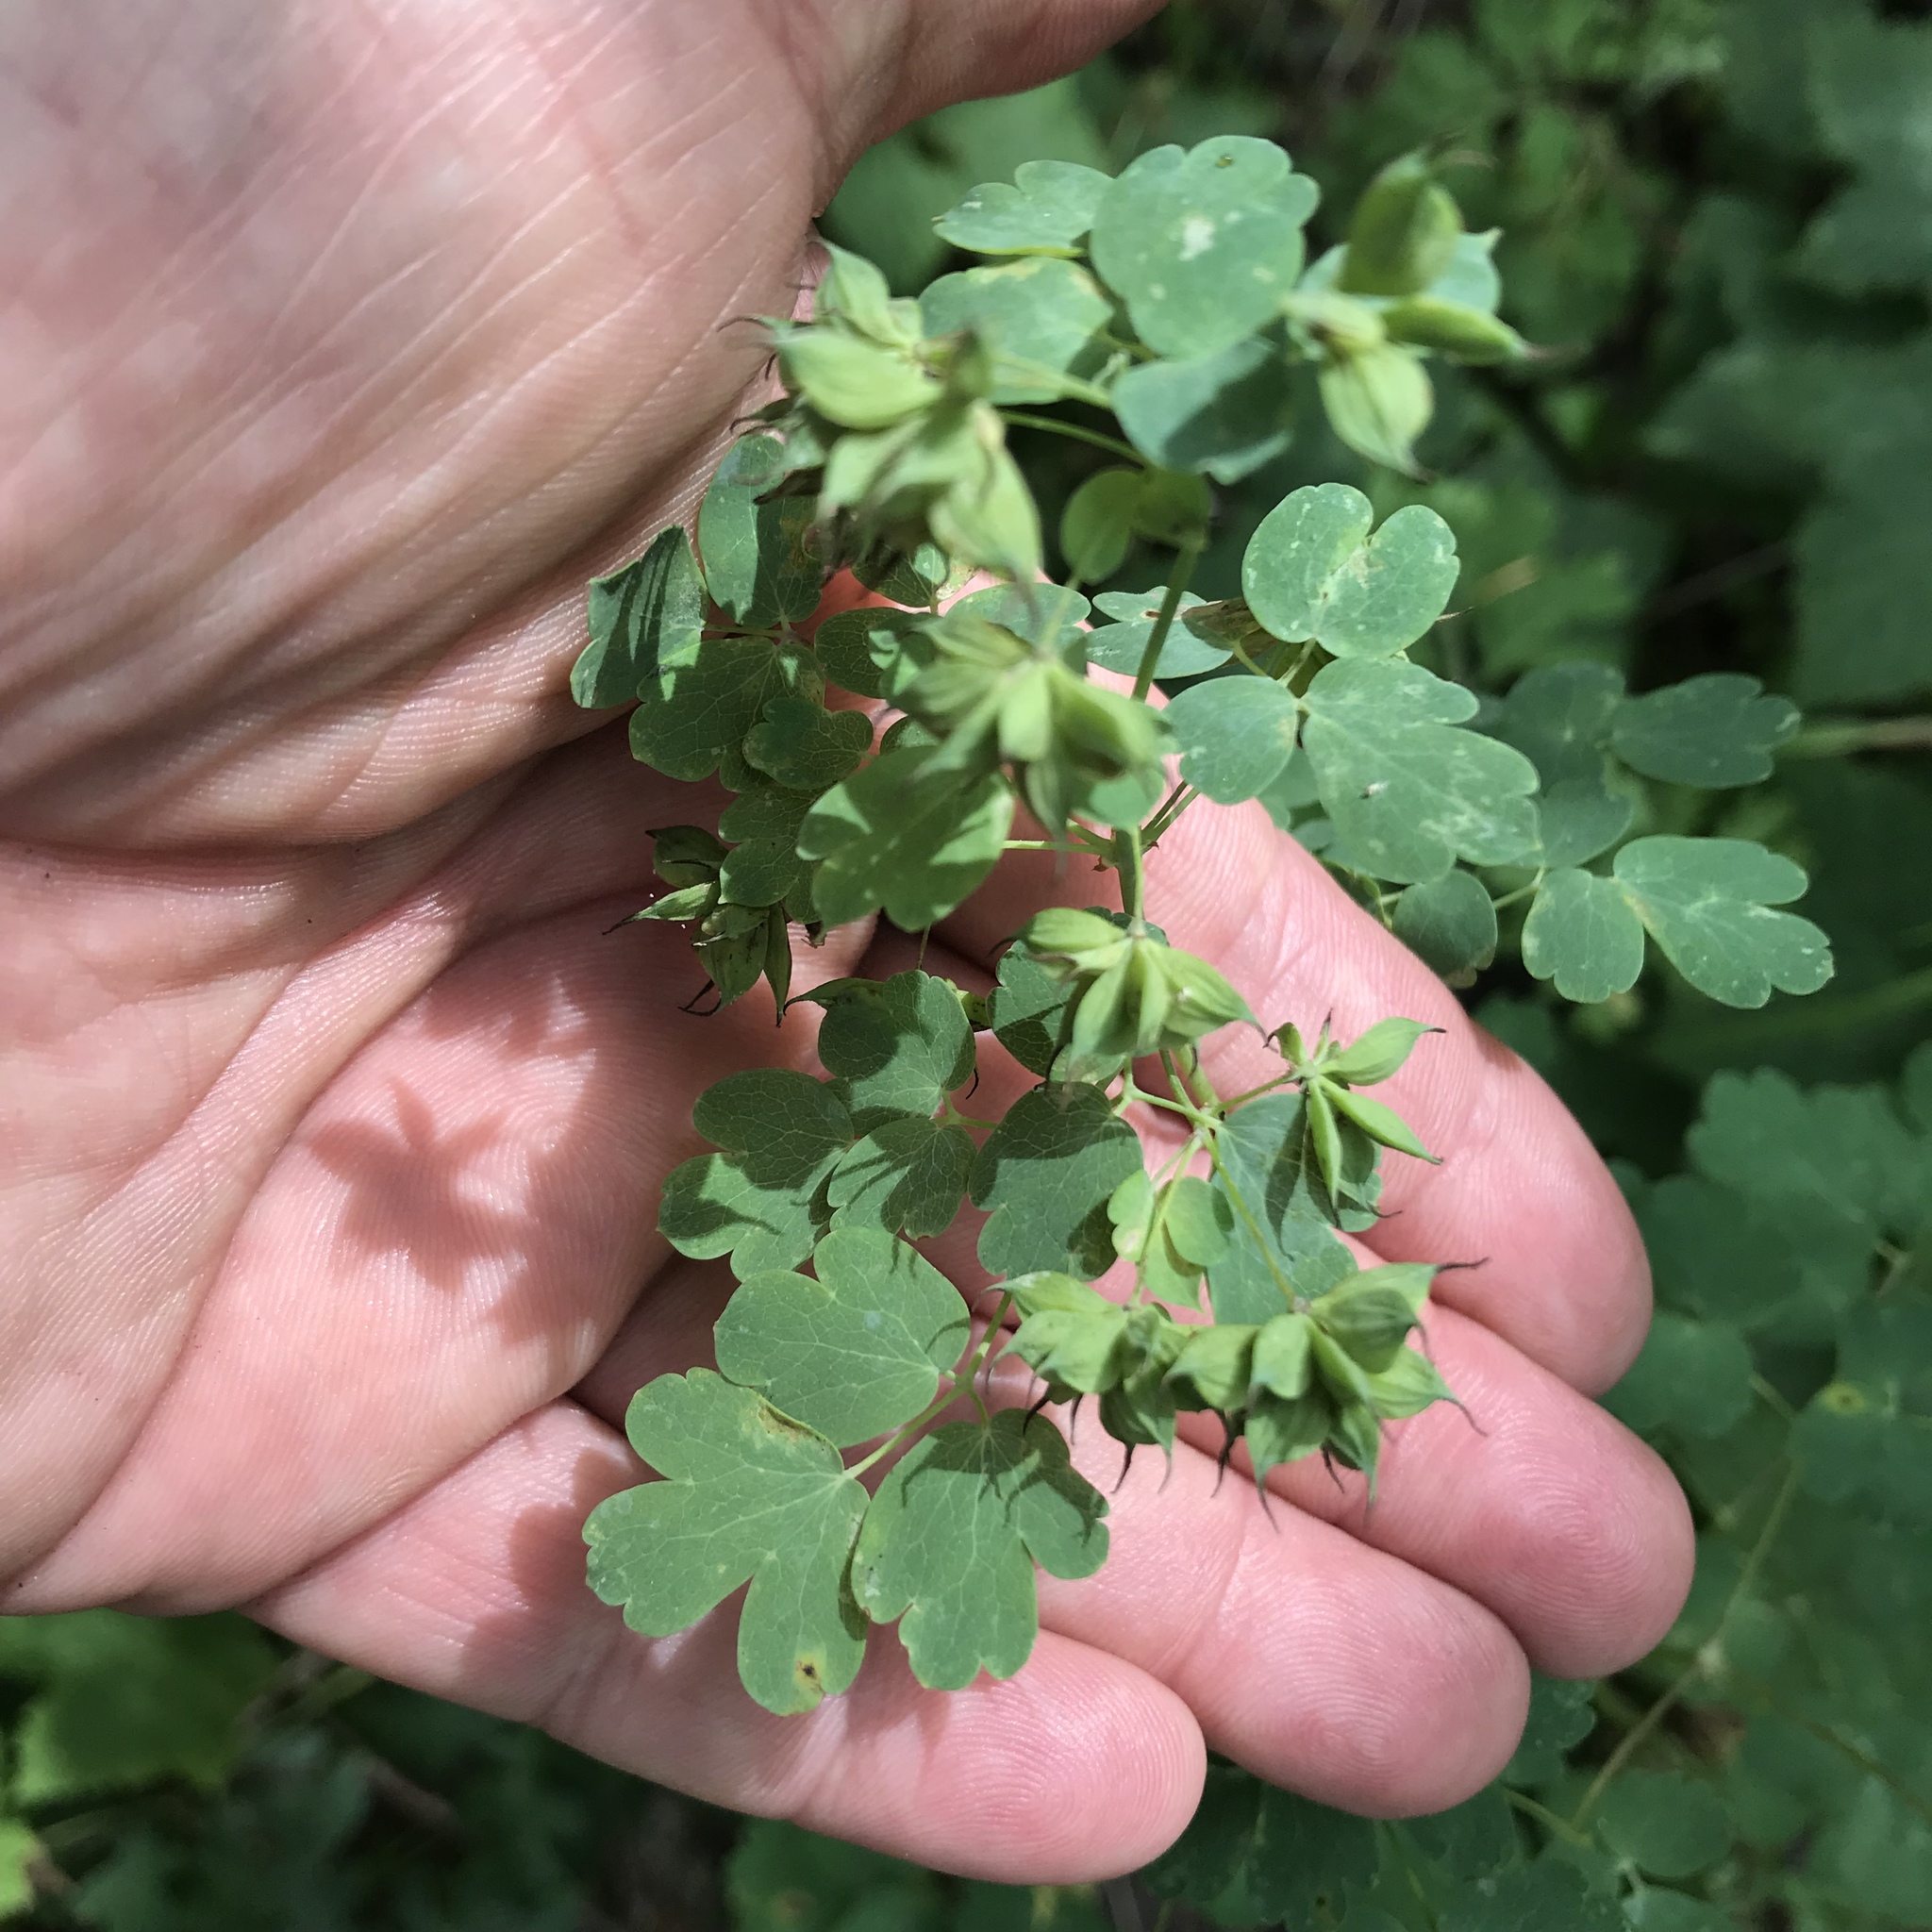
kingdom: Plantae
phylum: Tracheophyta
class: Magnoliopsida
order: Ranunculales
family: Ranunculaceae
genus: Thalictrum
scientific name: Thalictrum fendleri
